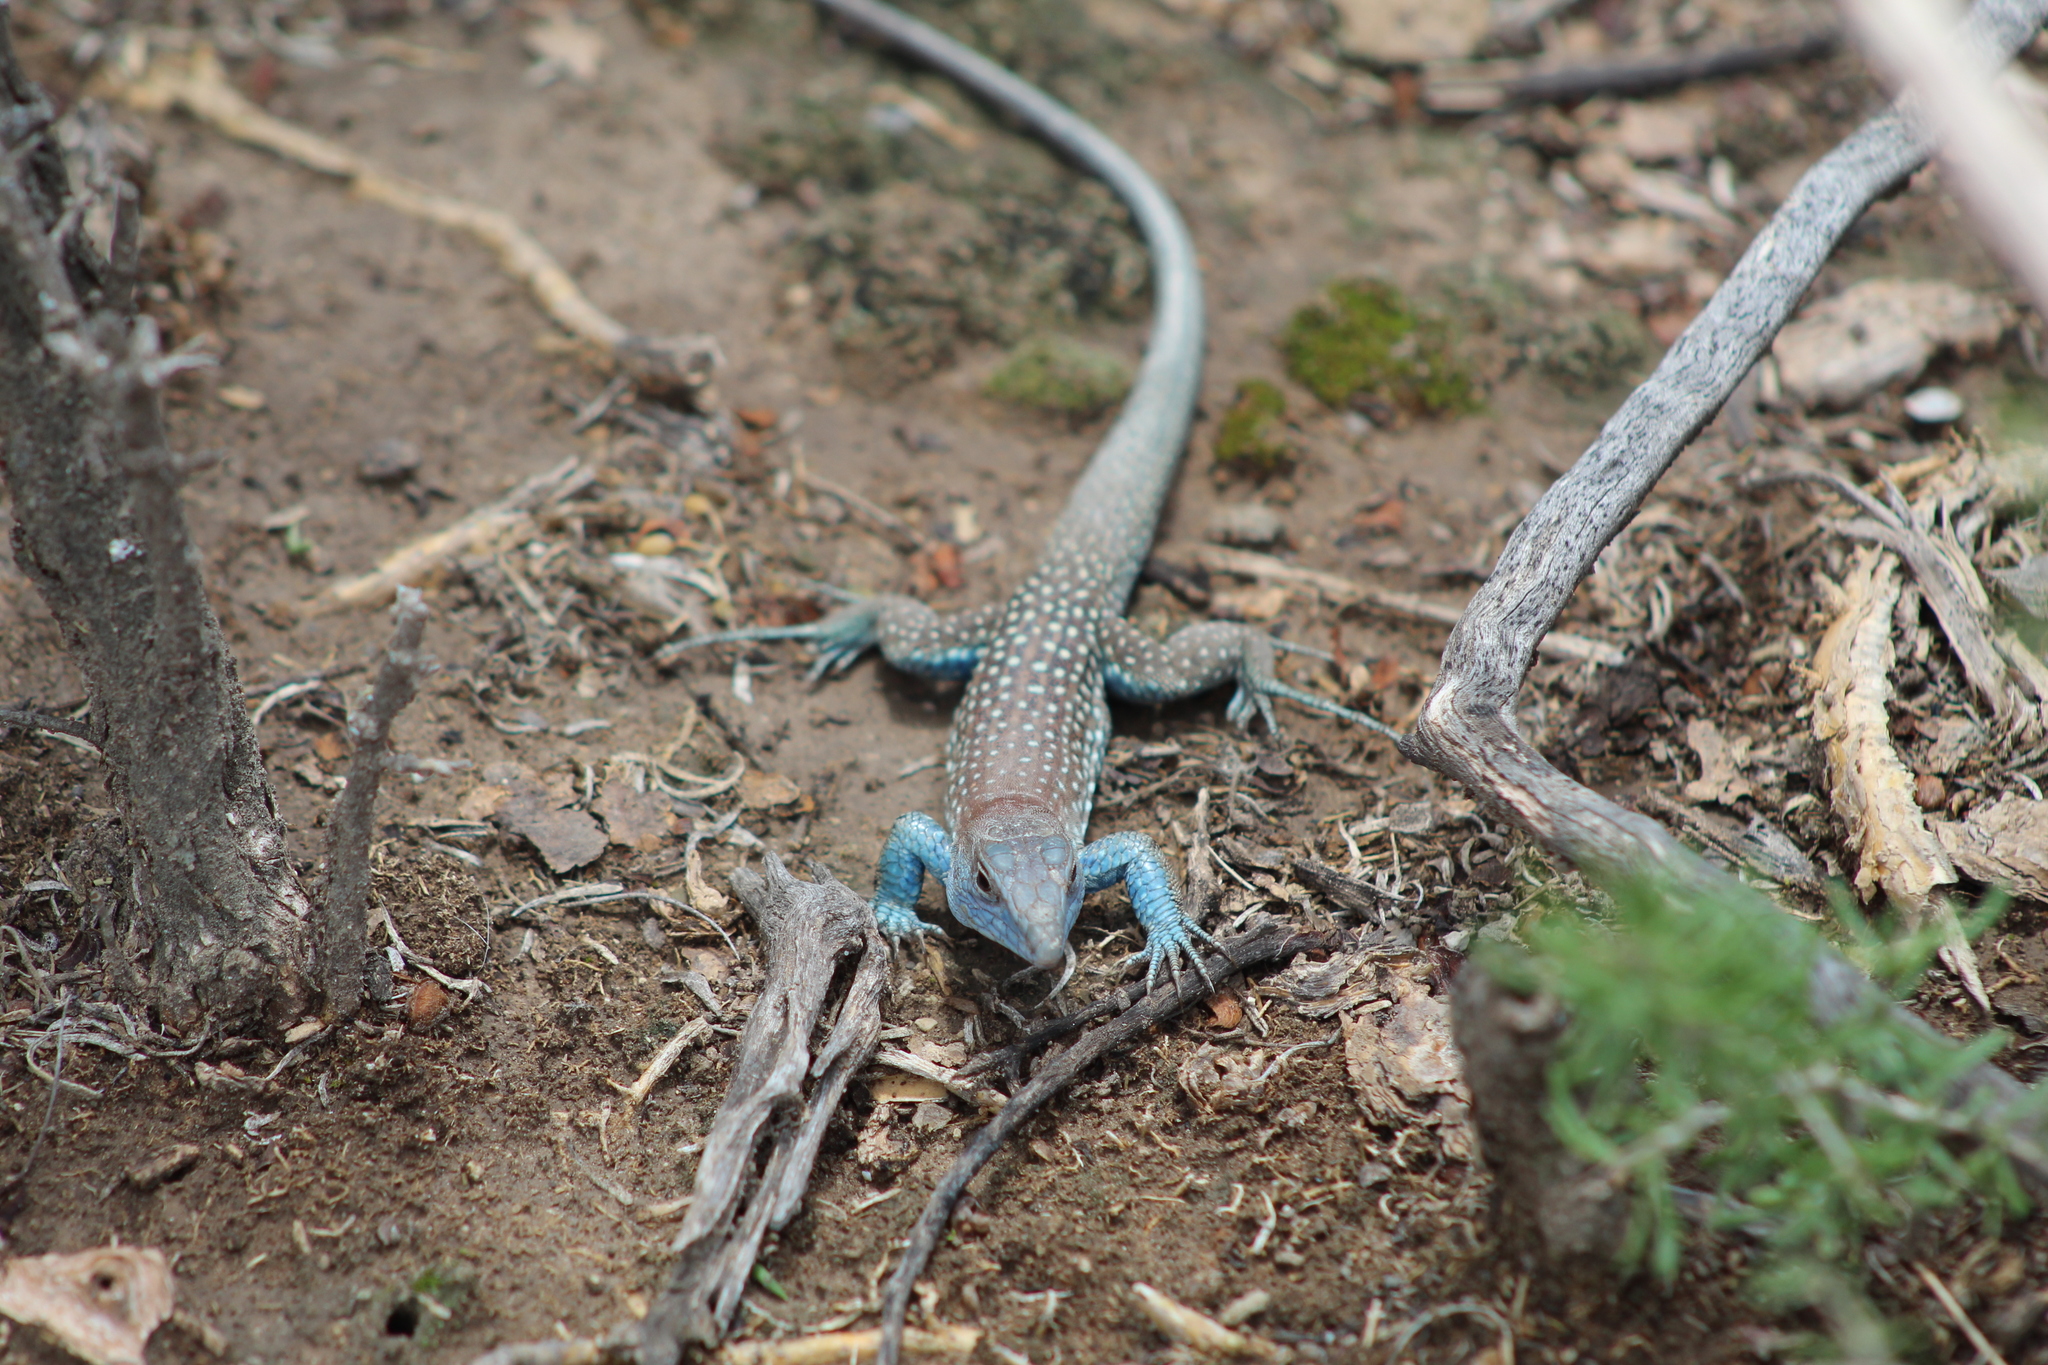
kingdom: Animalia
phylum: Chordata
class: Squamata
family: Teiidae
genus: Aspidoscelis
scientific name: Aspidoscelis gularis
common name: Eastern spotted whiptail
